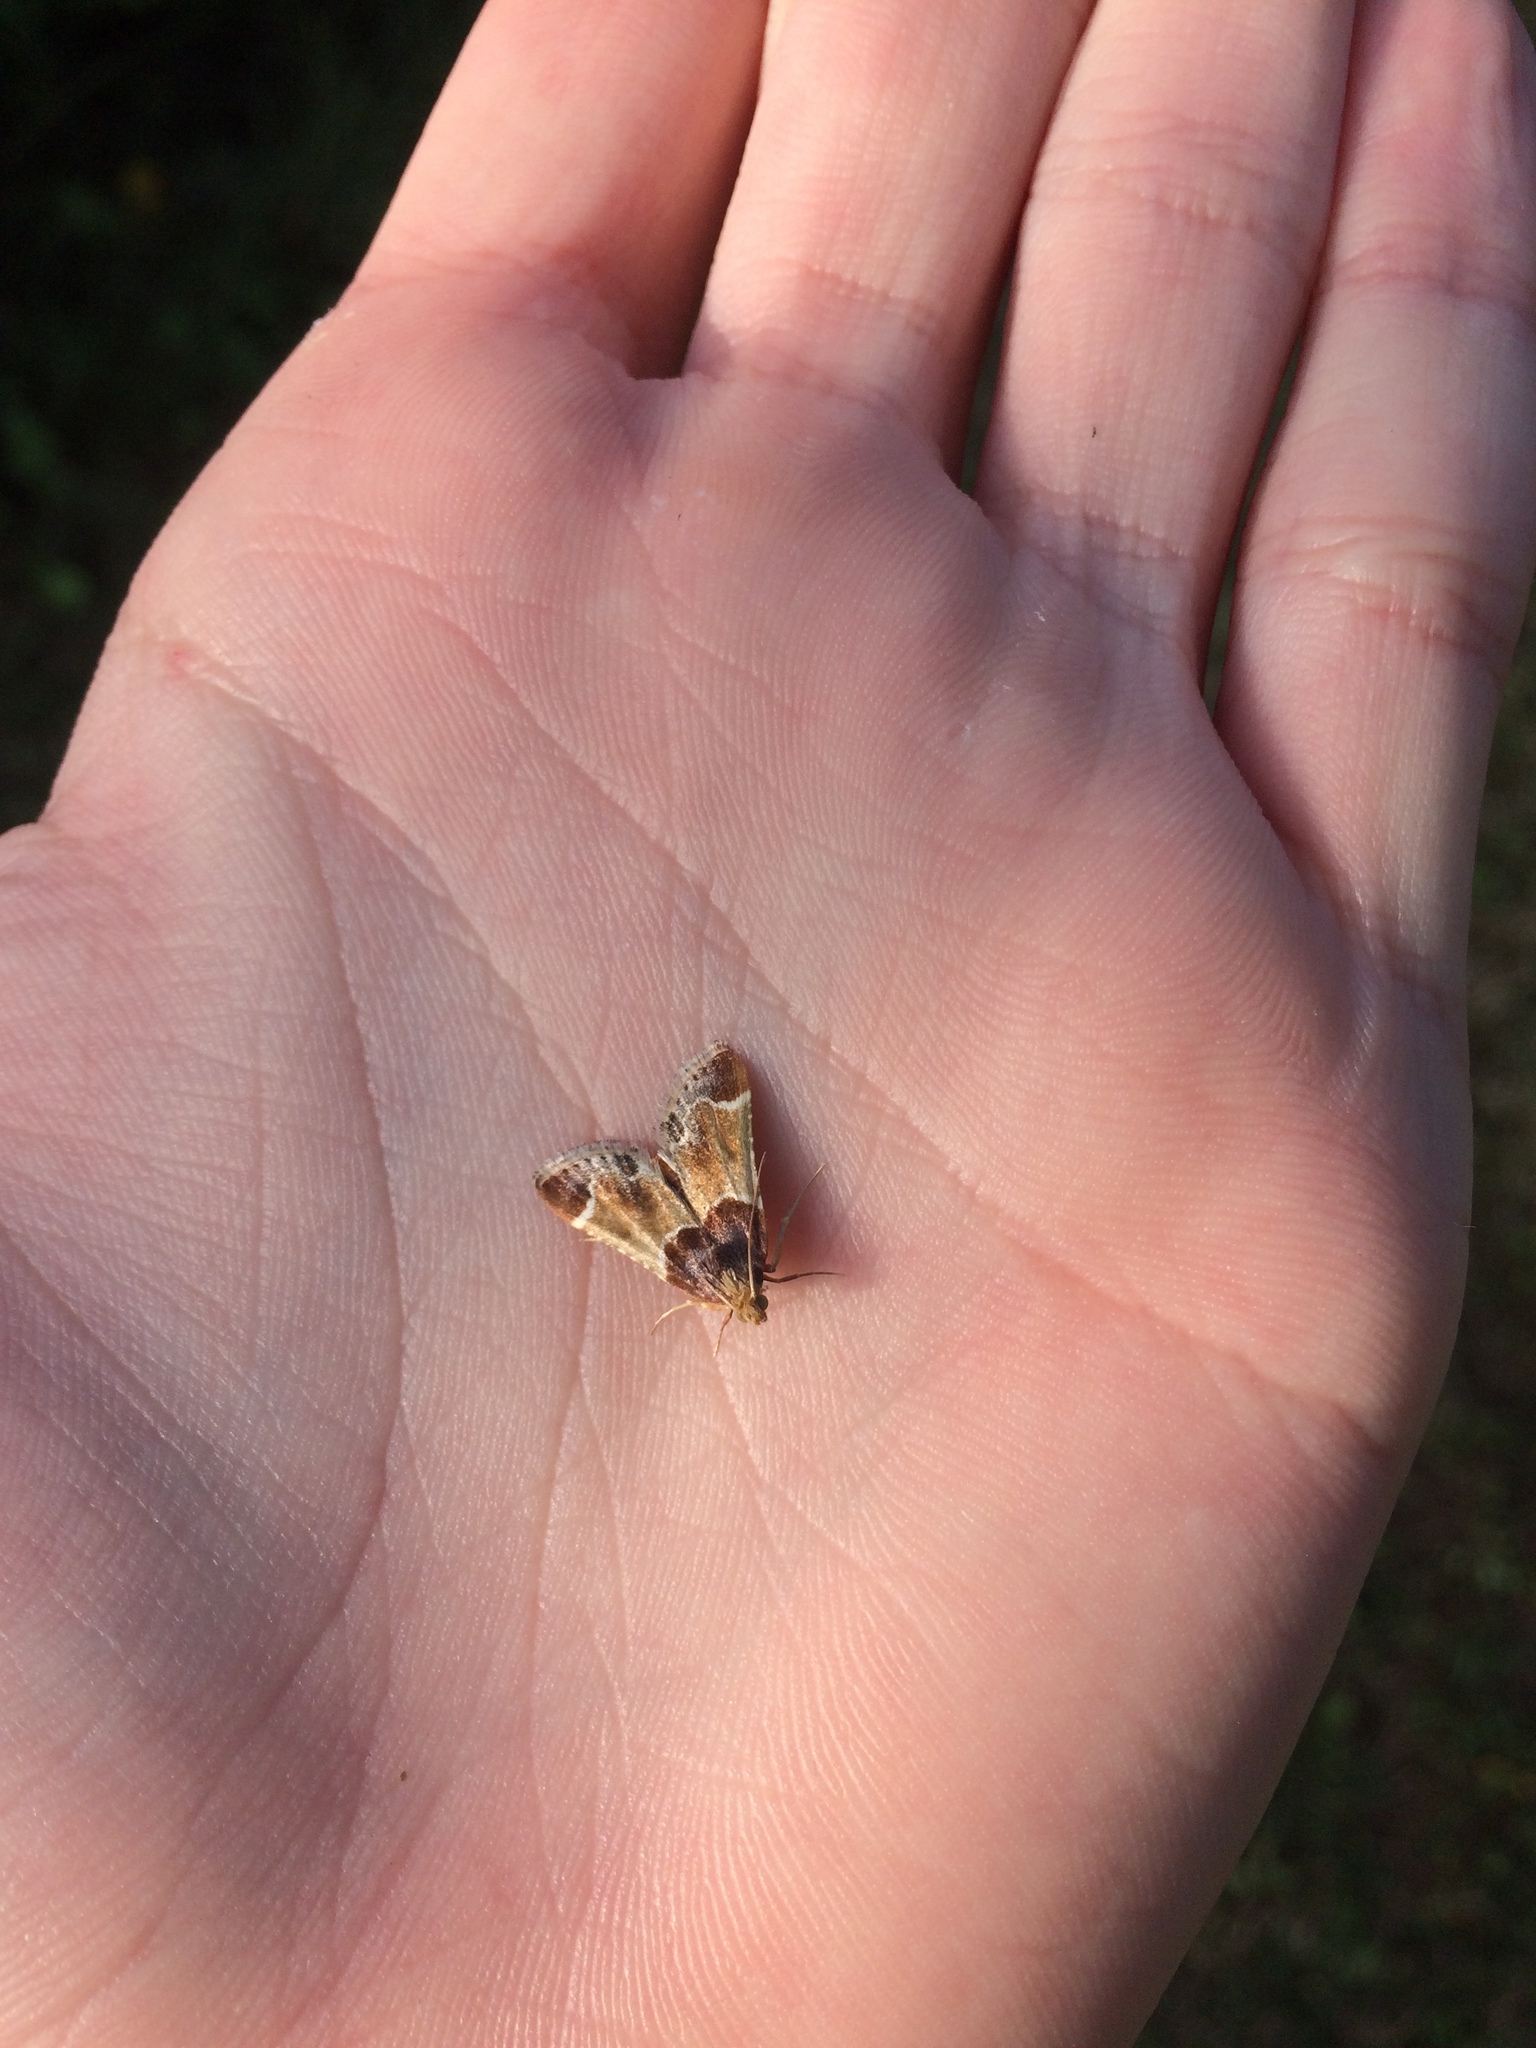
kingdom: Animalia
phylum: Arthropoda
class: Insecta
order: Lepidoptera
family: Pyralidae
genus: Pyralis
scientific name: Pyralis farinalis
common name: Meal moth
